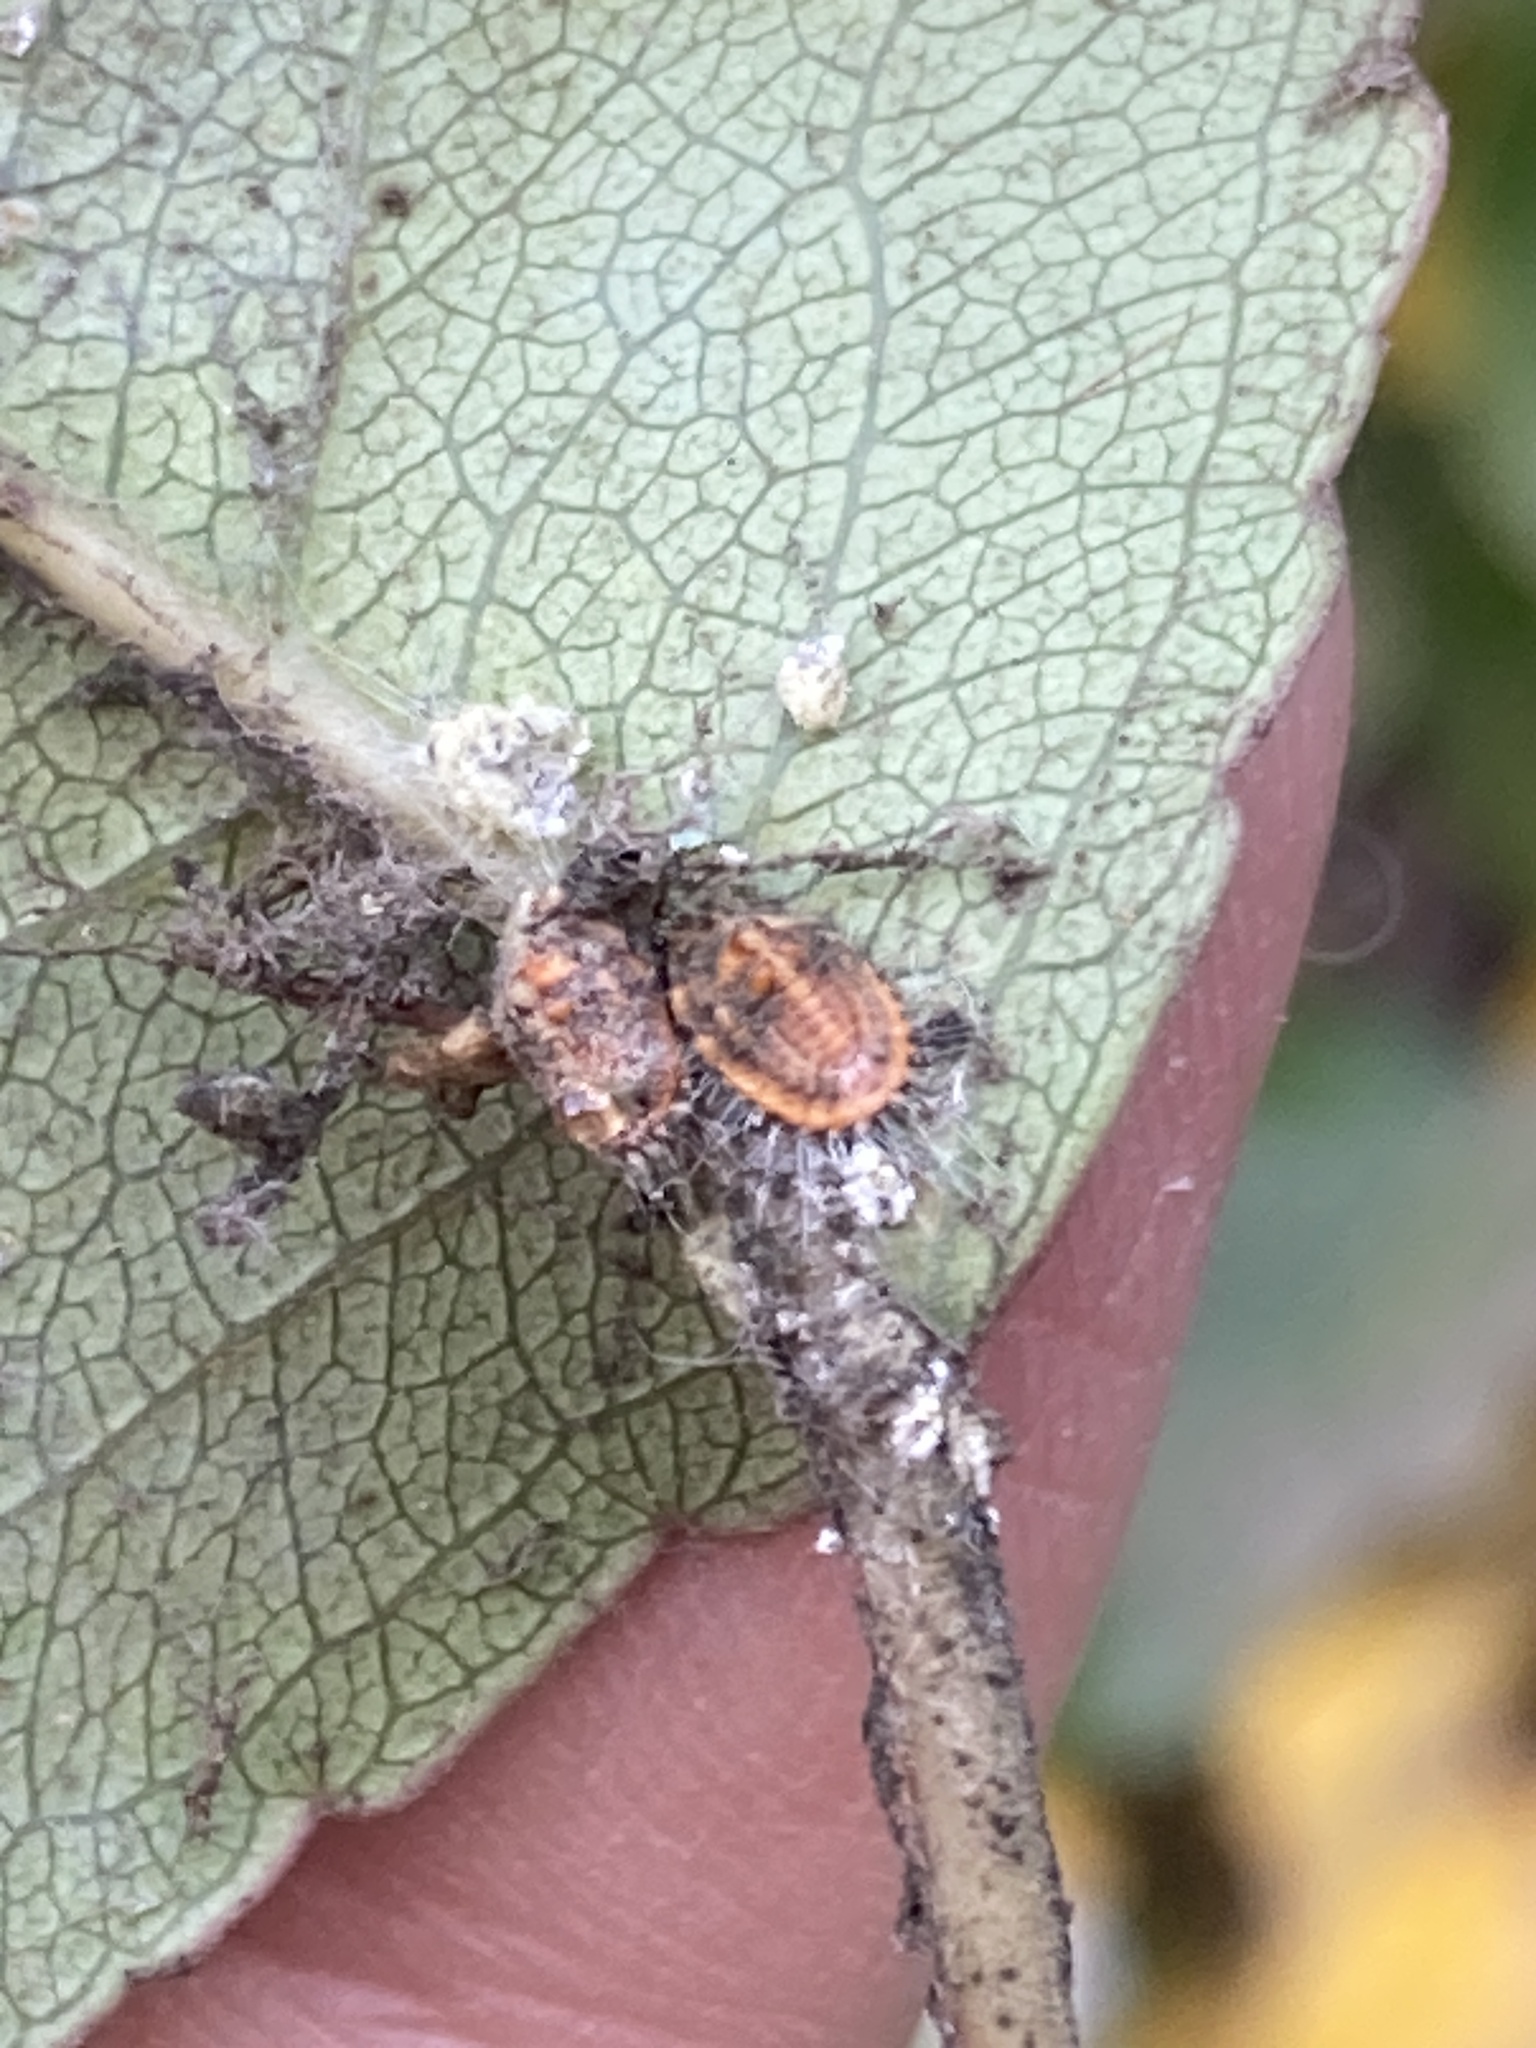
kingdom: Animalia
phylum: Arthropoda
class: Insecta
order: Hemiptera
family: Margarodidae
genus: Icerya
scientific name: Icerya purchasi
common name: Cottony cushion scale
